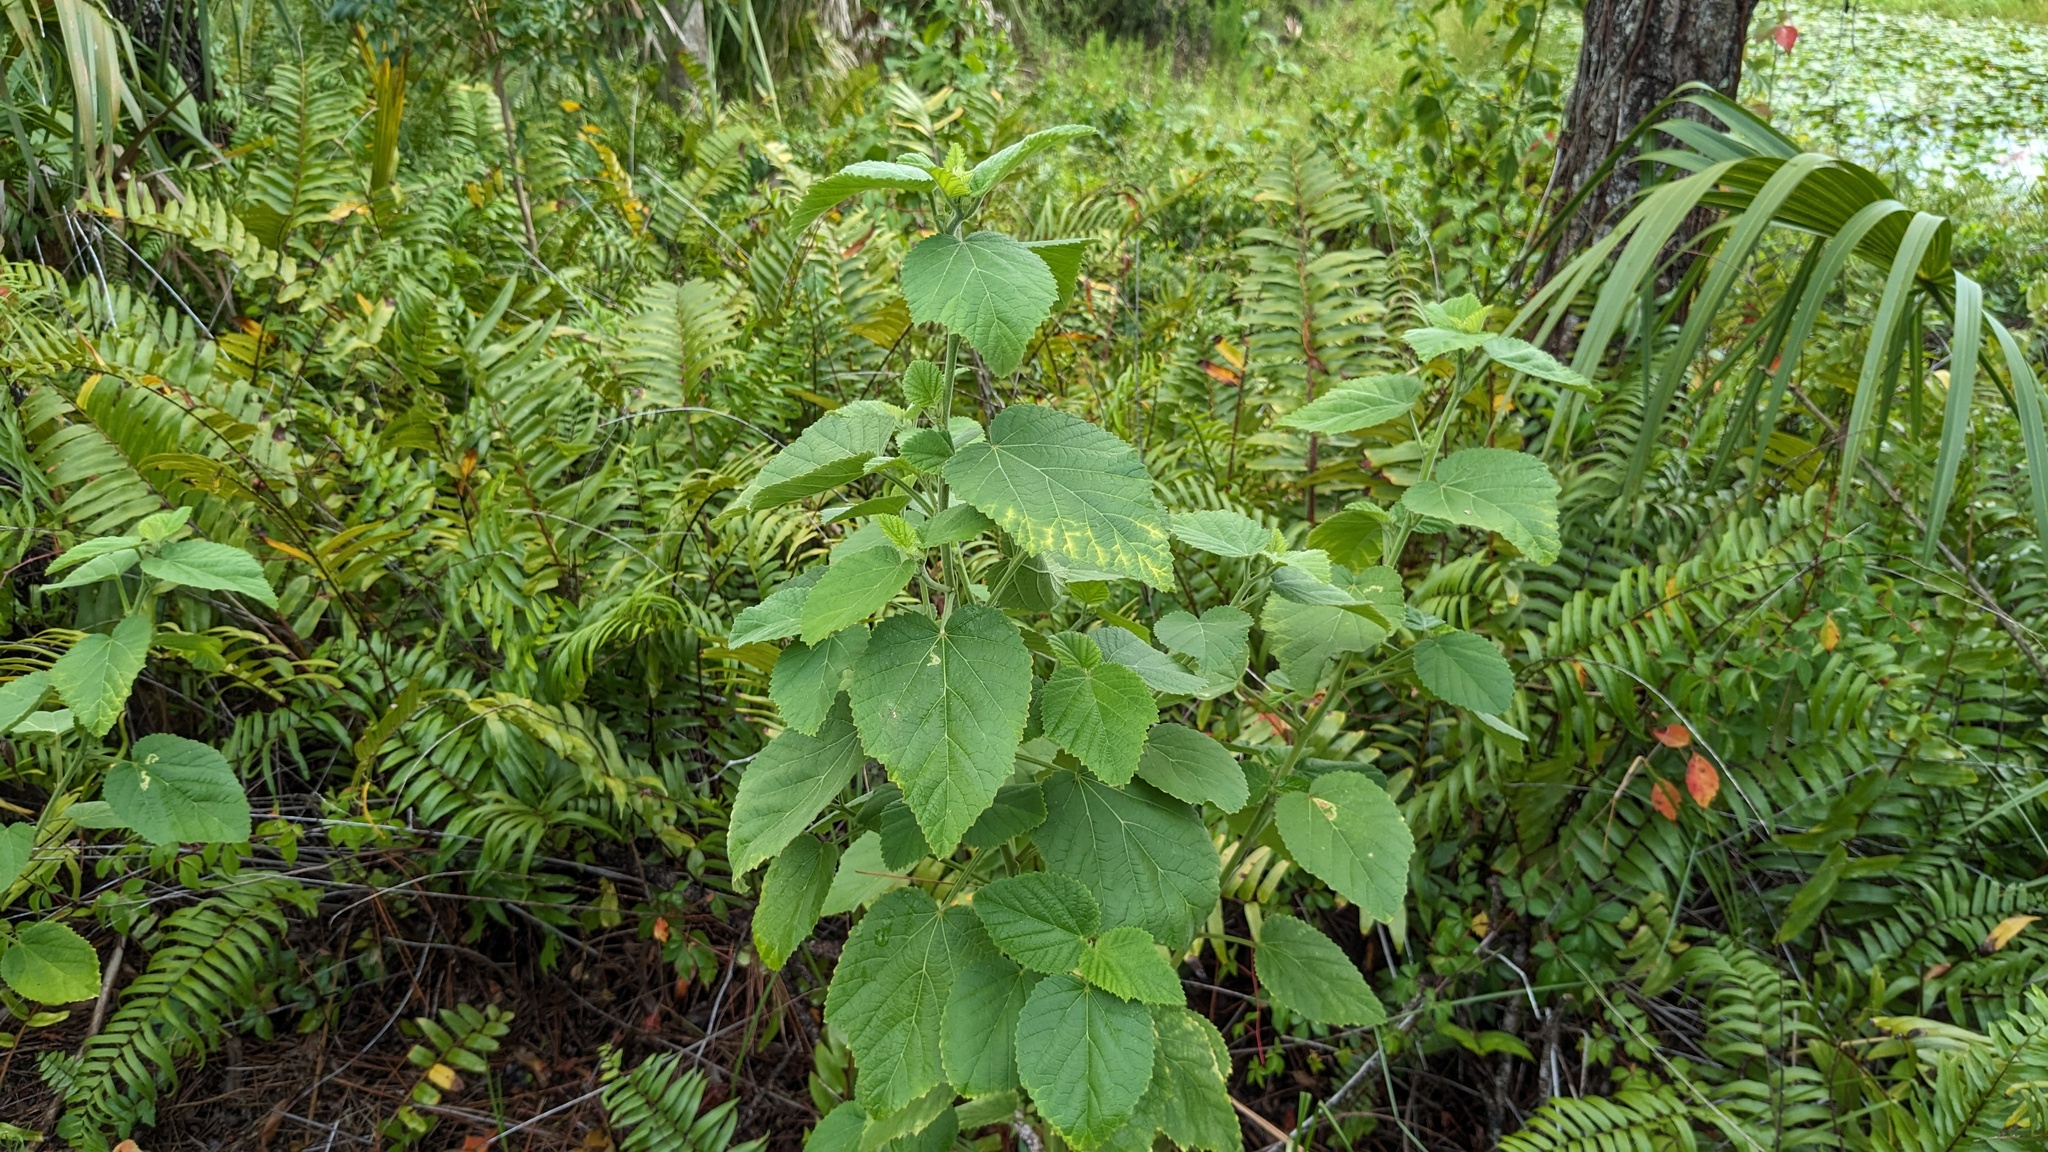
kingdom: Plantae
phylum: Tracheophyta
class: Magnoliopsida
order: Malvales
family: Malvaceae
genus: Sida
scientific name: Sida cordifolia
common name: Ilima
